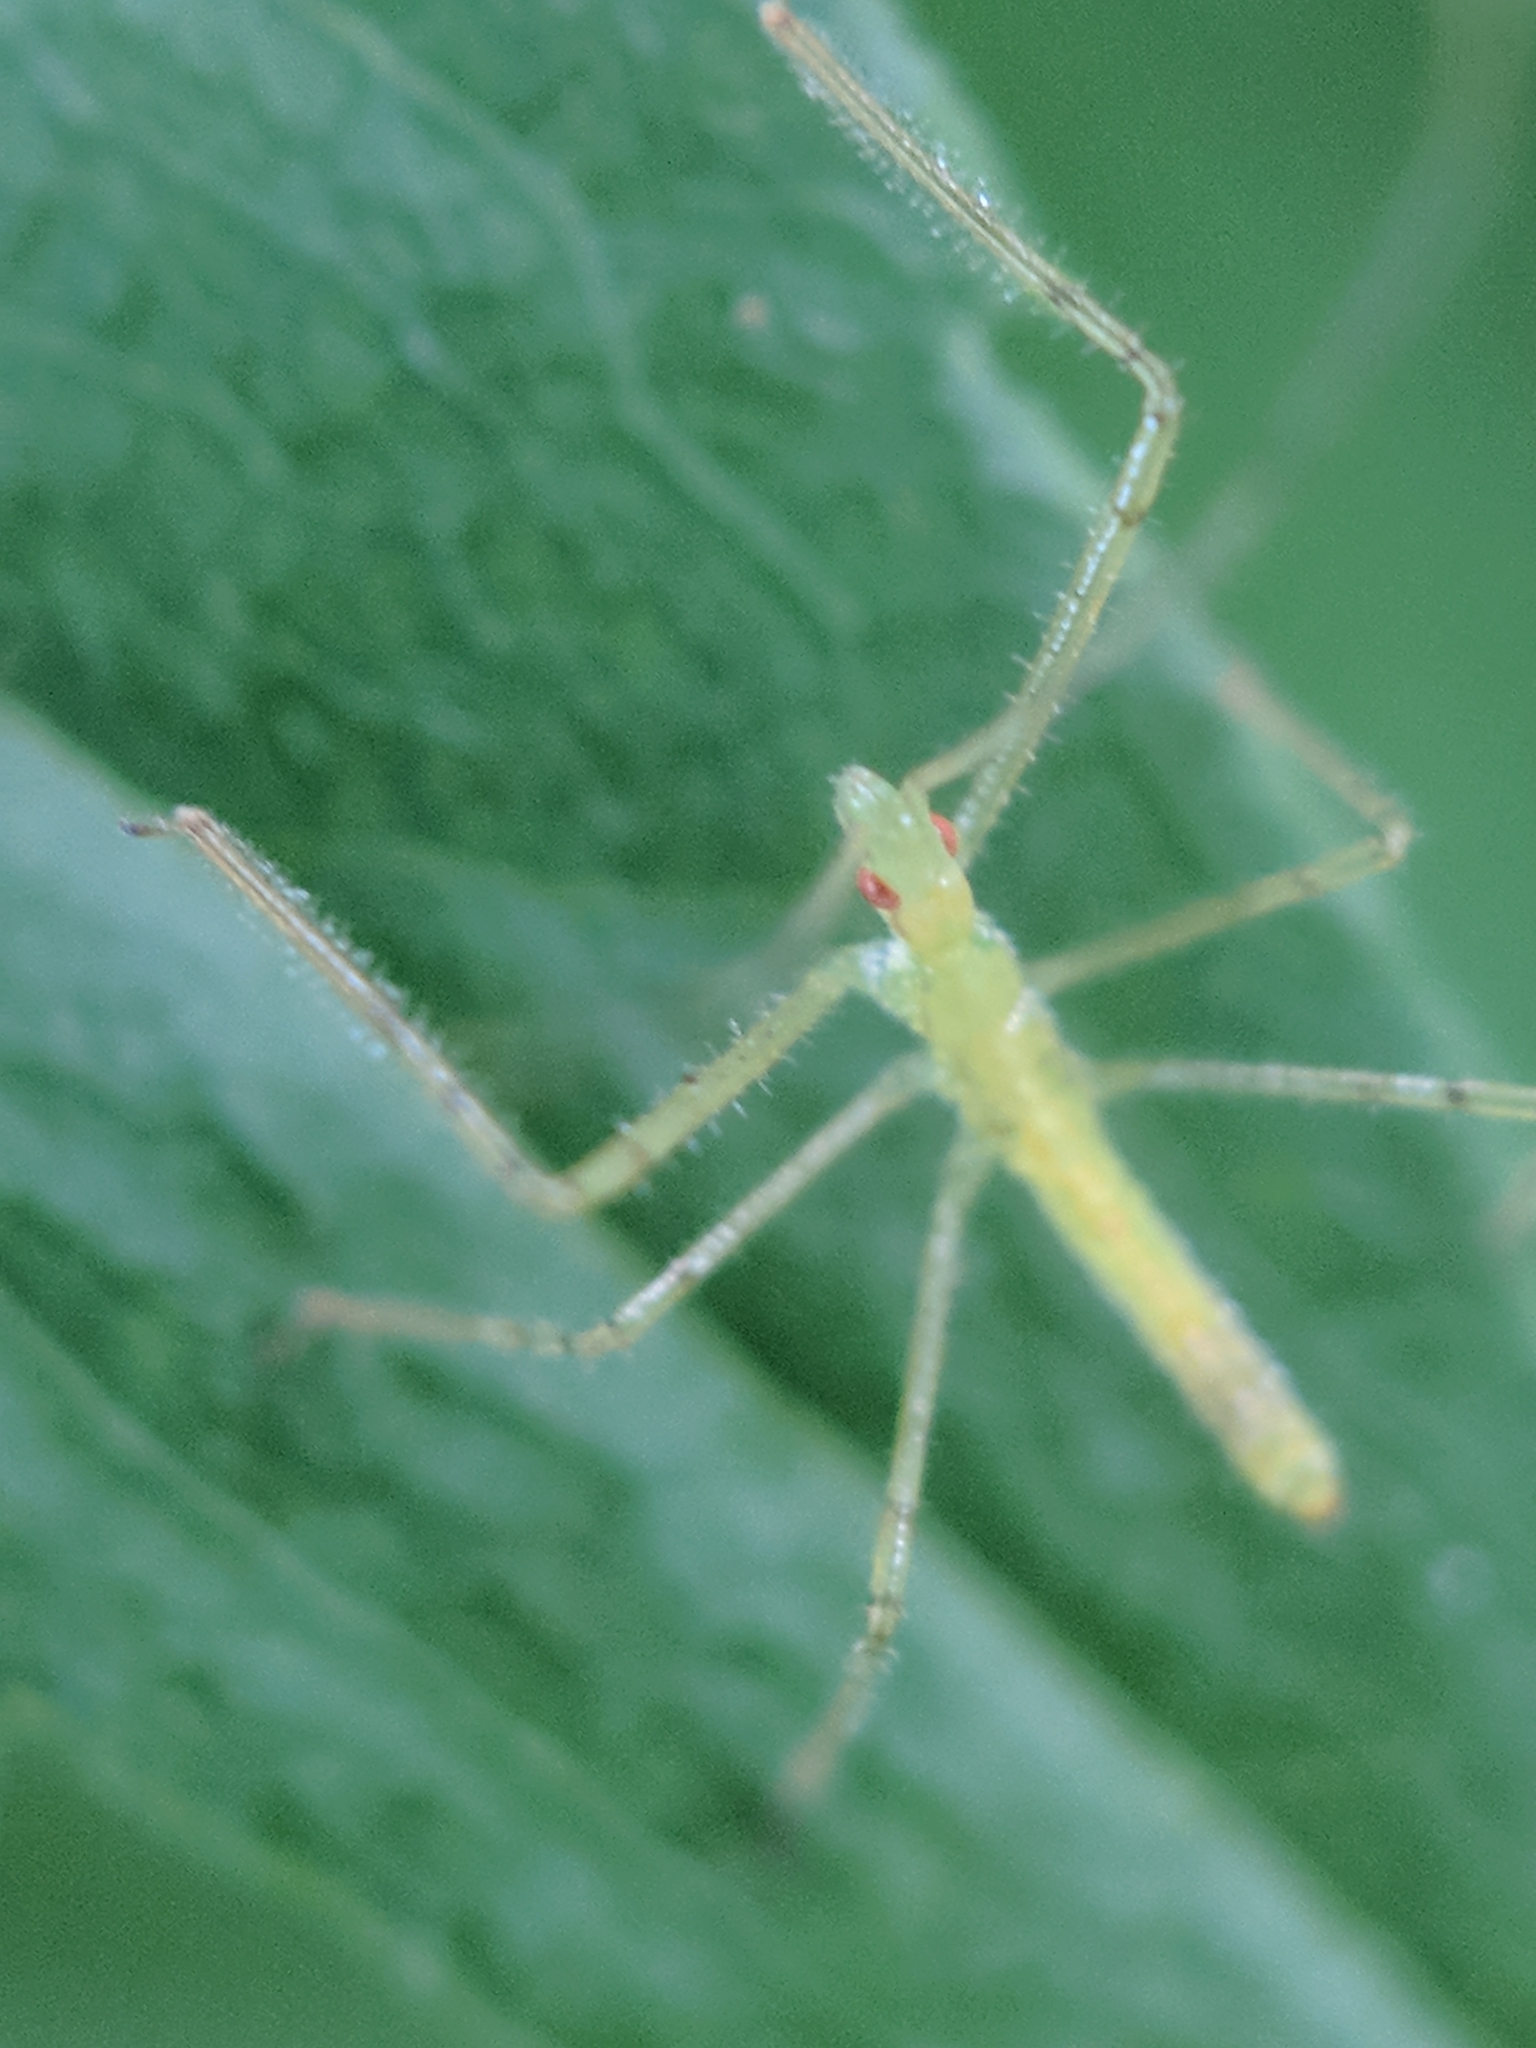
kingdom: Animalia
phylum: Arthropoda
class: Insecta
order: Hemiptera
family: Reduviidae
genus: Zelus
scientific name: Zelus luridus
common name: Pale green assassin bug
